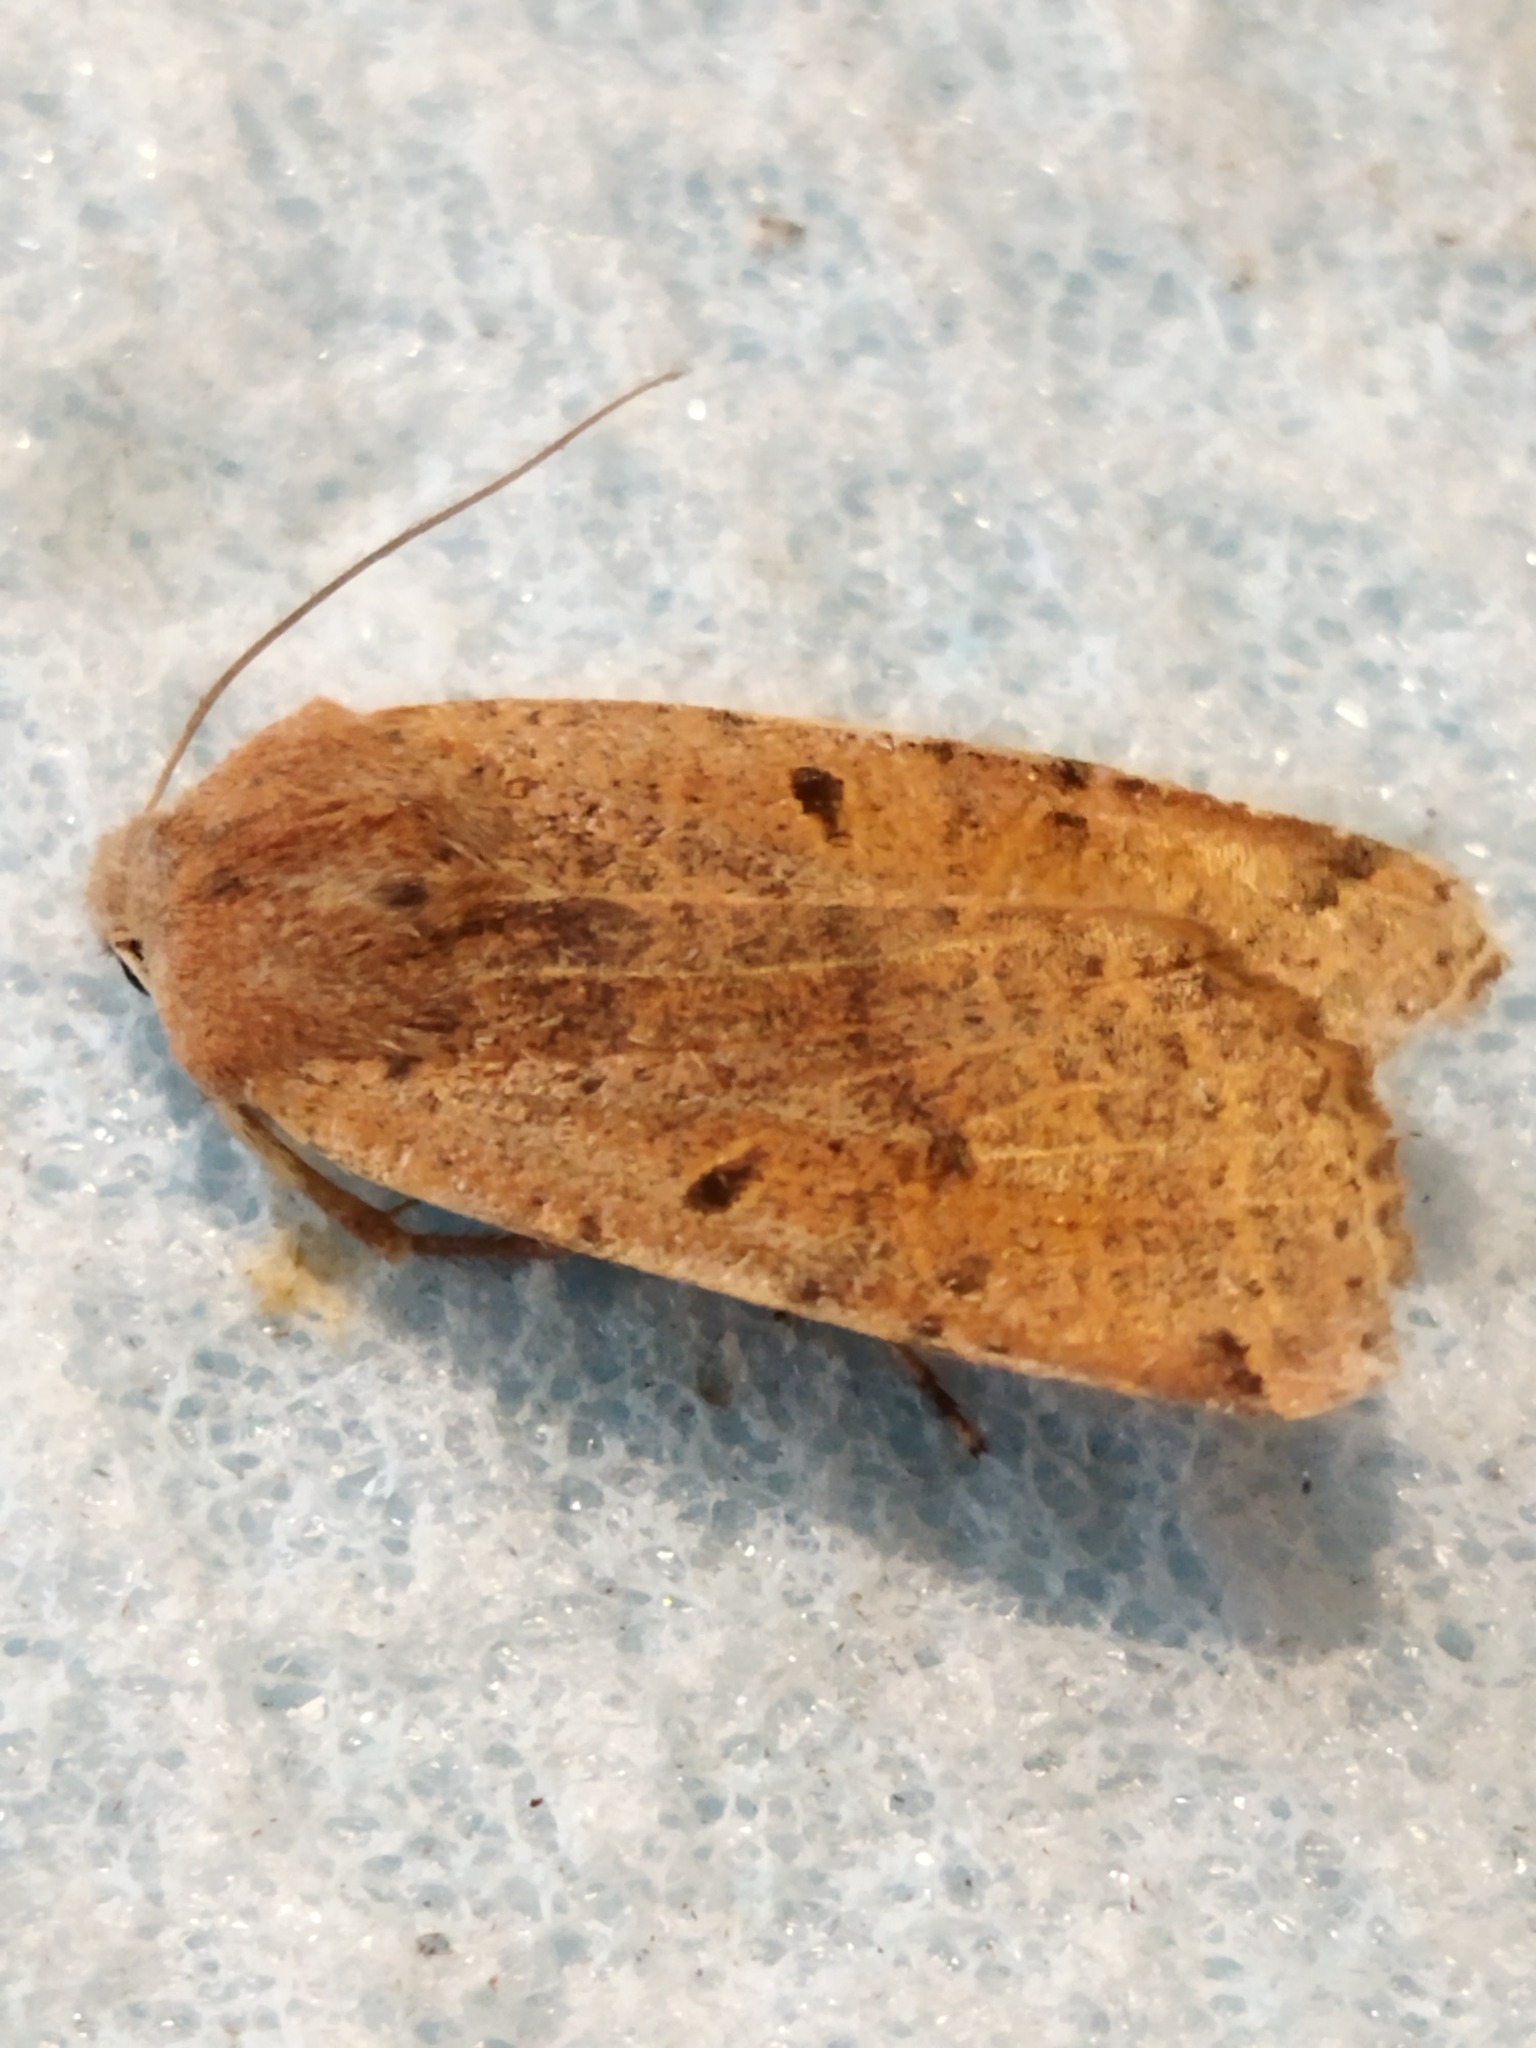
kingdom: Animalia
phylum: Arthropoda
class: Insecta
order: Lepidoptera
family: Noctuidae
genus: Agrochola
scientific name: Agrochola lychnidis
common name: Beaded chestnut
